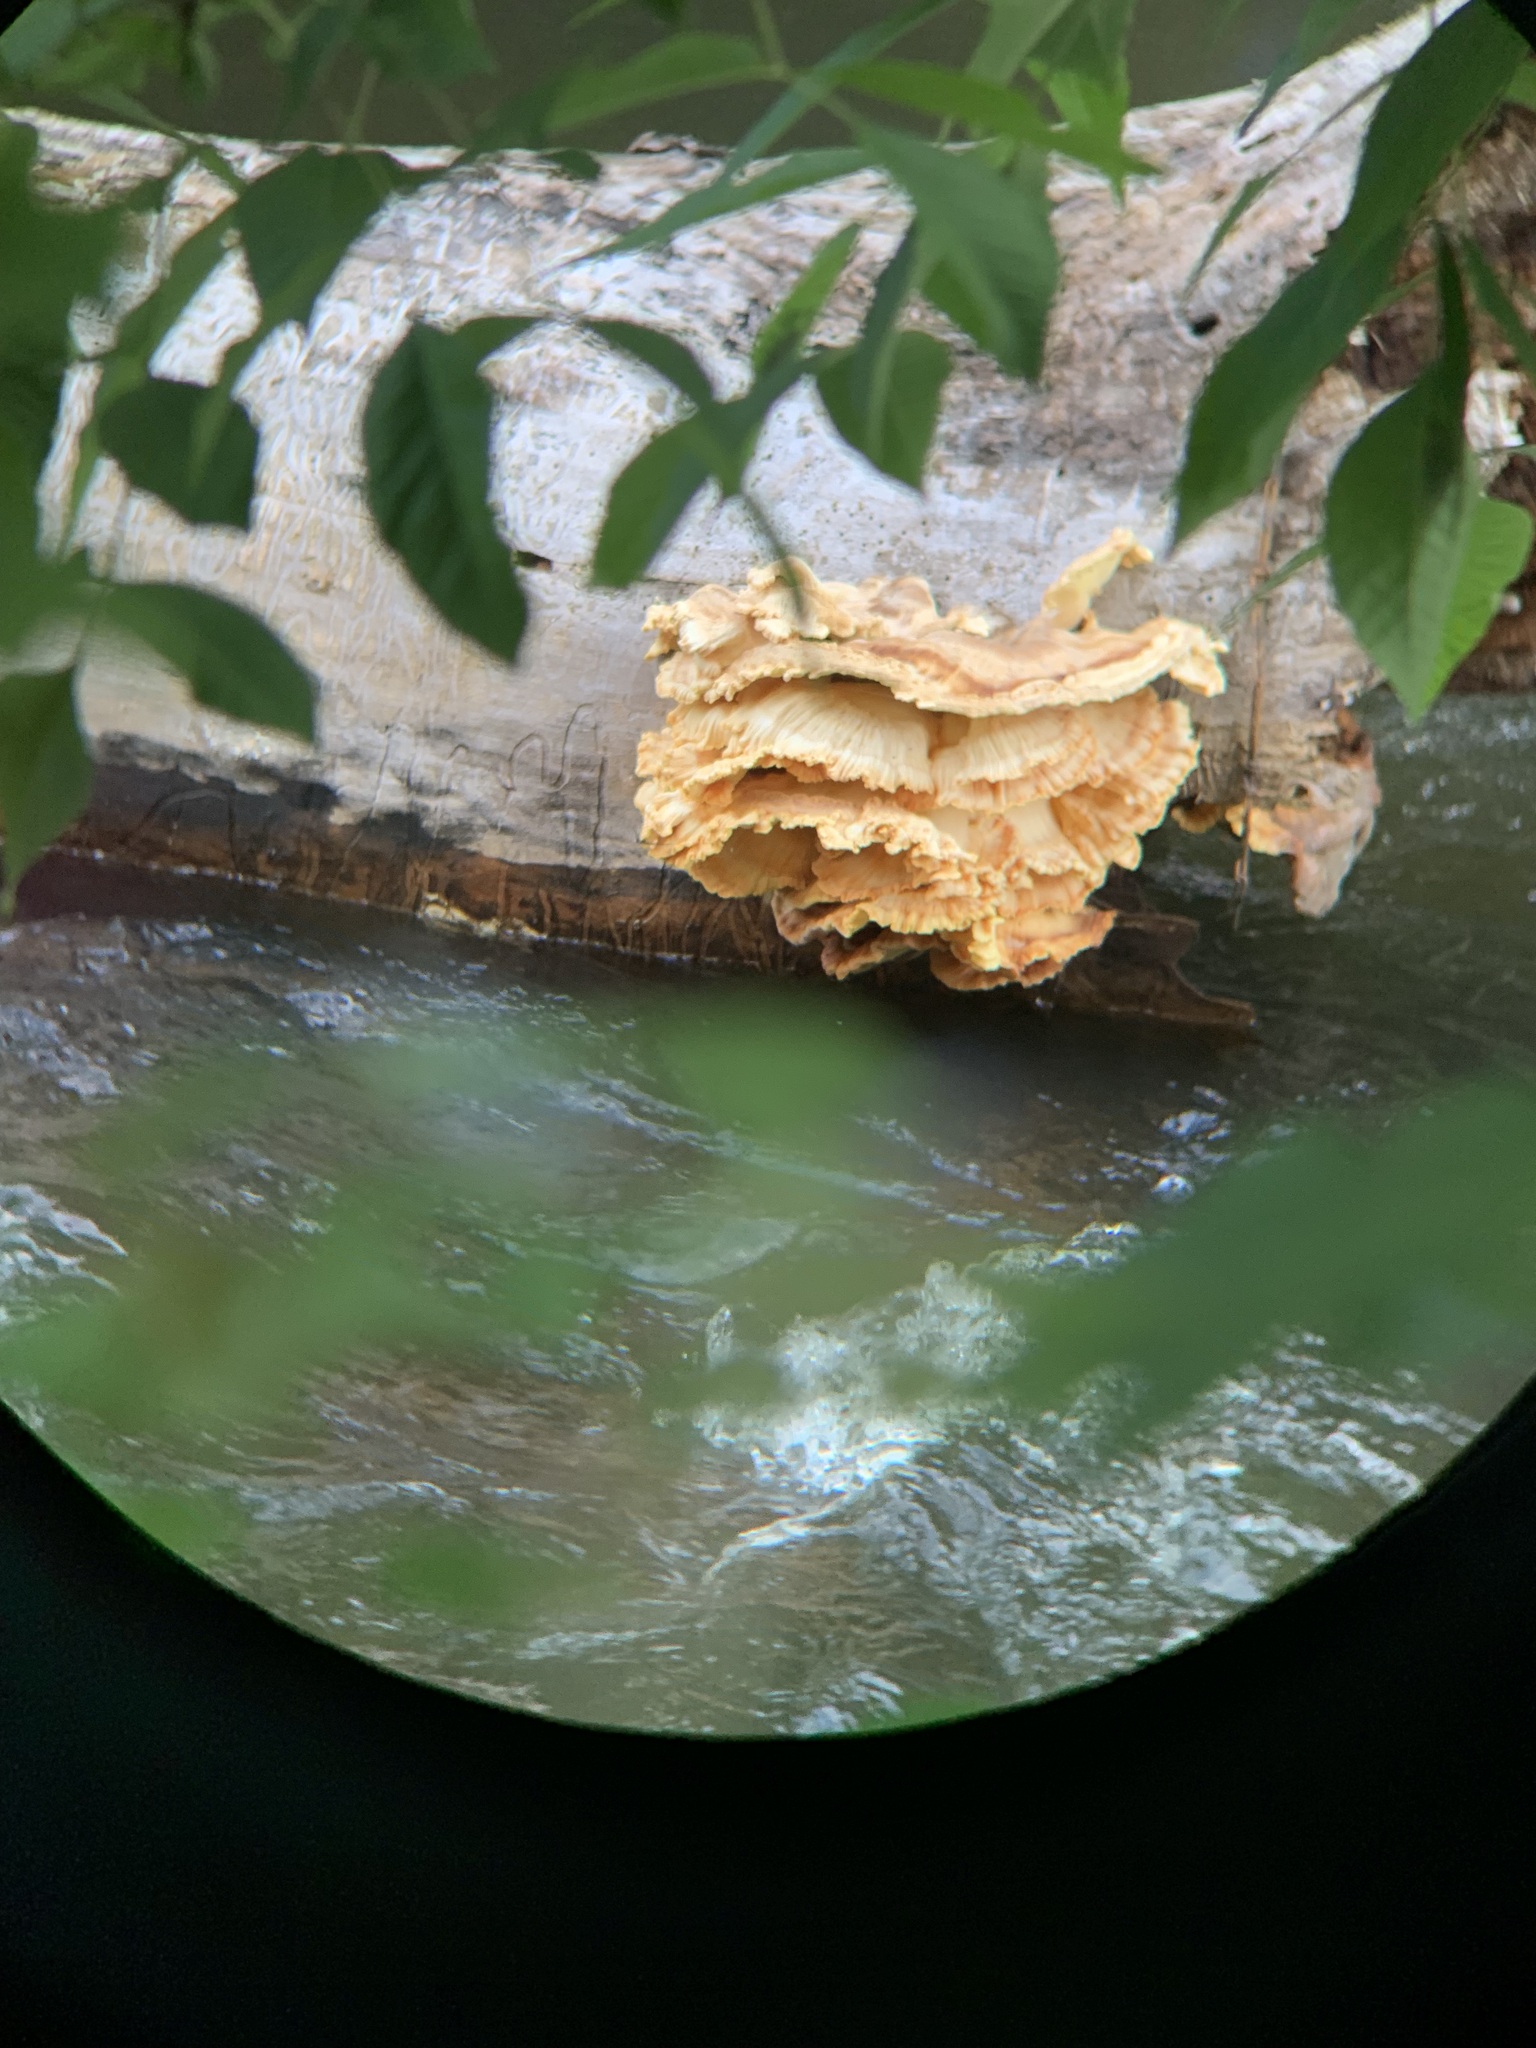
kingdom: Fungi
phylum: Basidiomycota
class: Agaricomycetes
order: Polyporales
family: Laetiporaceae
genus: Laetiporus
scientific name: Laetiporus sulphureus
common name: Chicken of the woods
